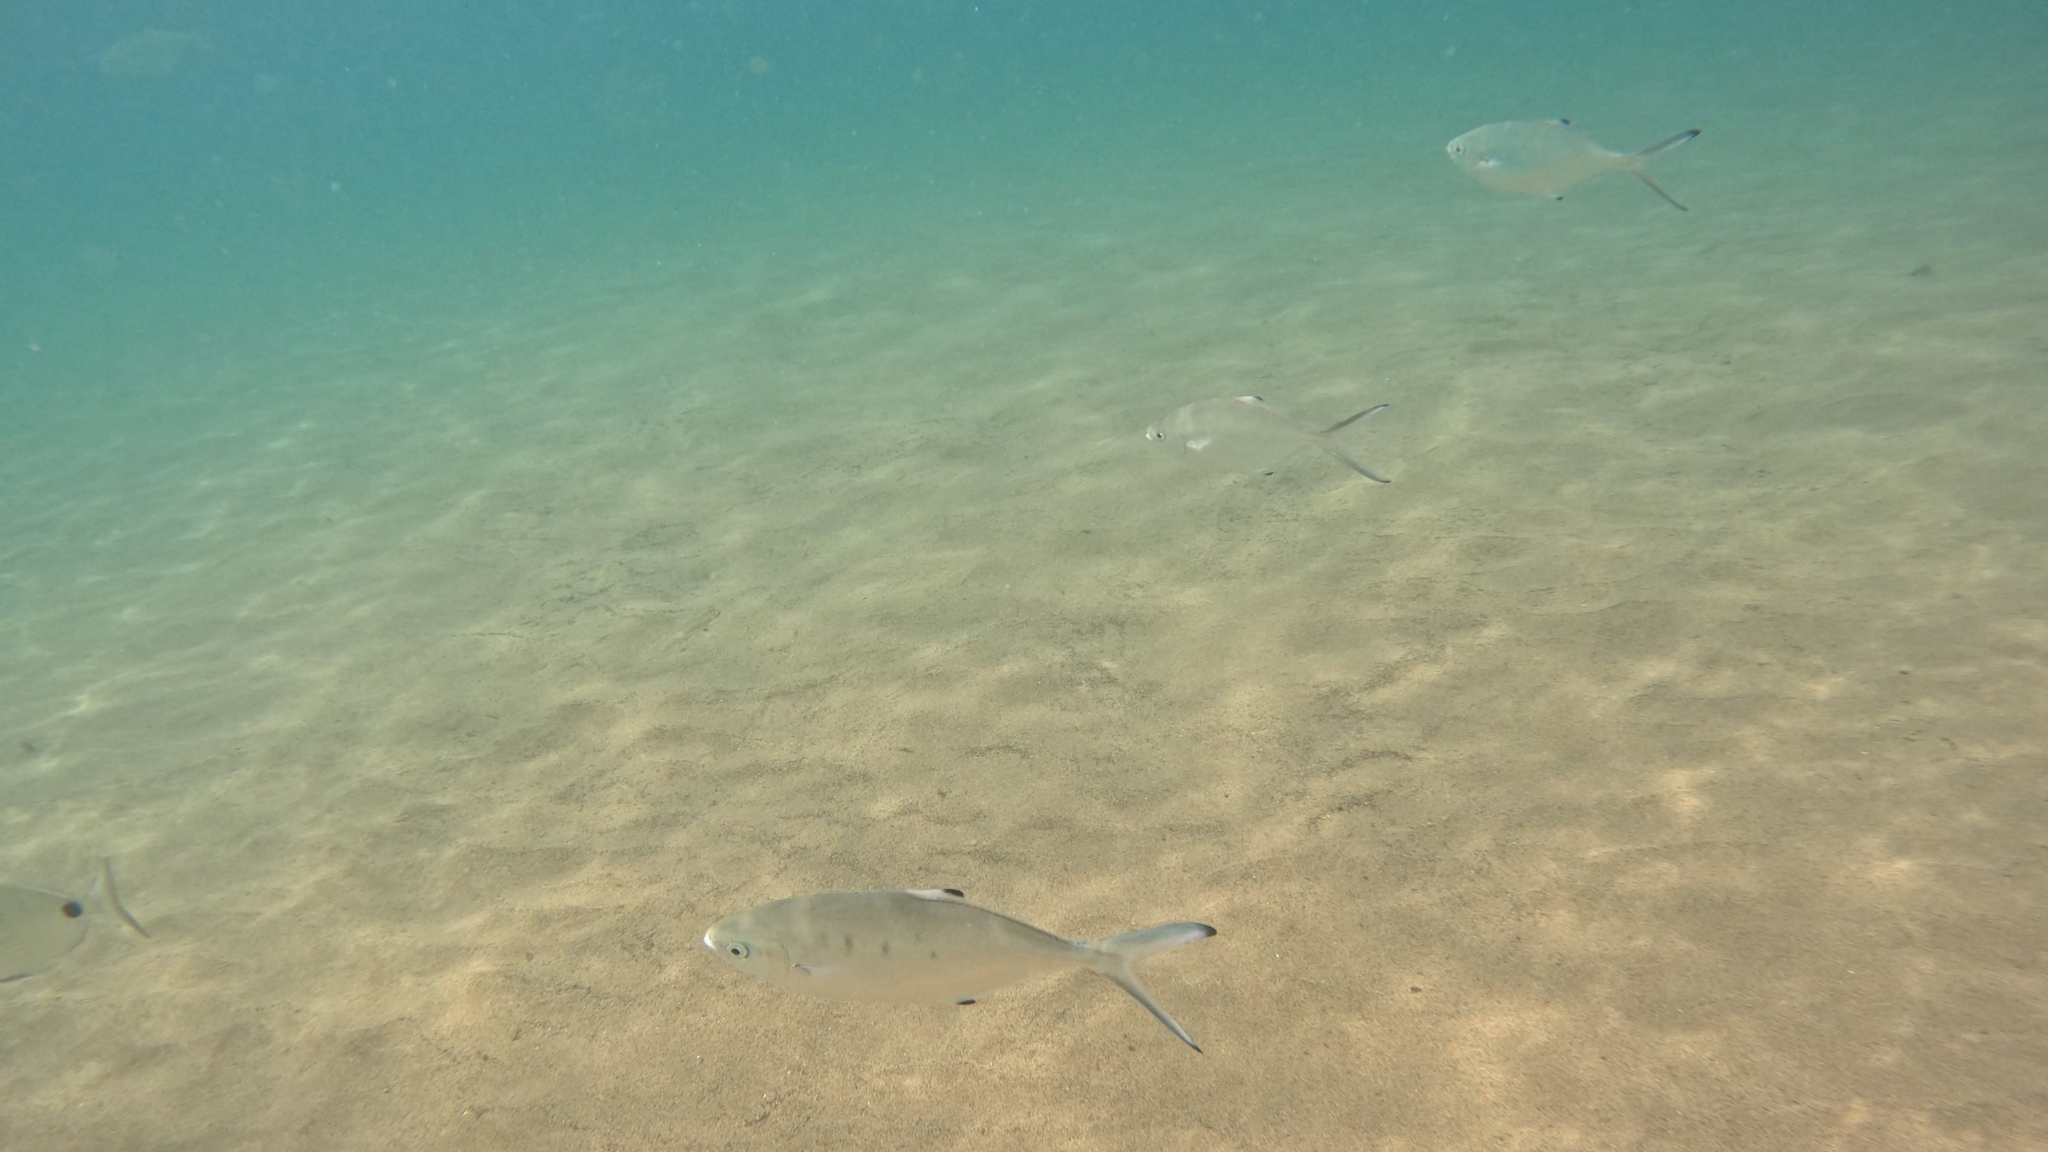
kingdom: Animalia
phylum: Chordata
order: Perciformes
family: Carangidae
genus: Trachinotus
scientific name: Trachinotus ovatus
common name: Pompano
